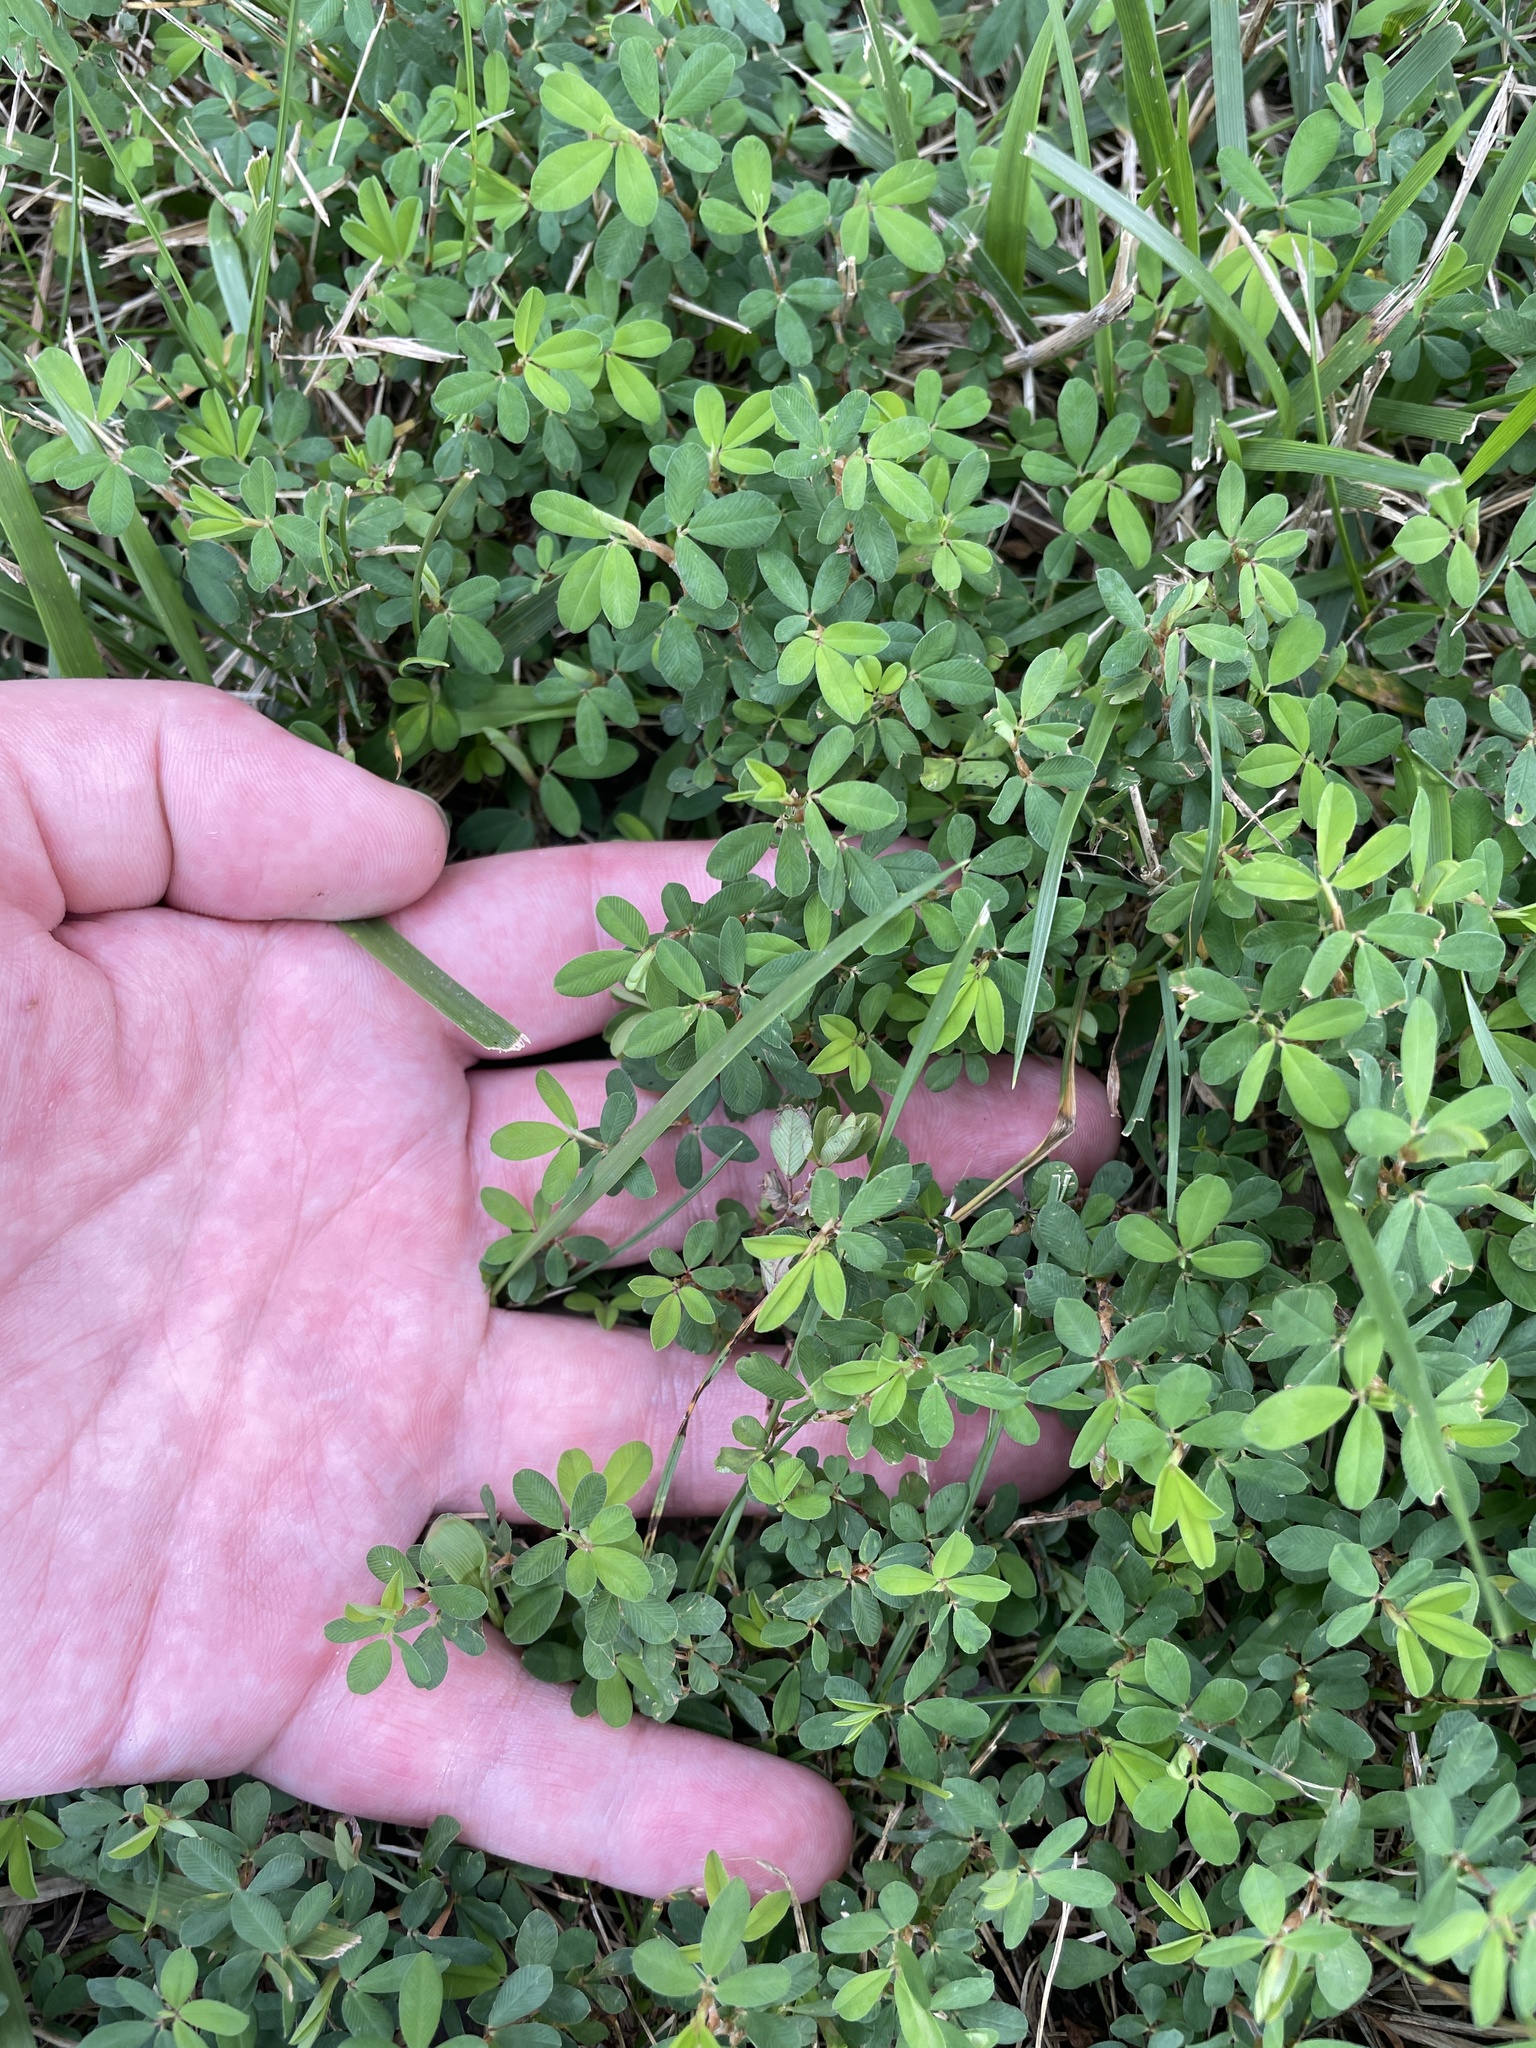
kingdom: Plantae
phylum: Tracheophyta
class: Magnoliopsida
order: Fabales
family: Fabaceae
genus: Kummerowia
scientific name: Kummerowia striata
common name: Japanese clover
